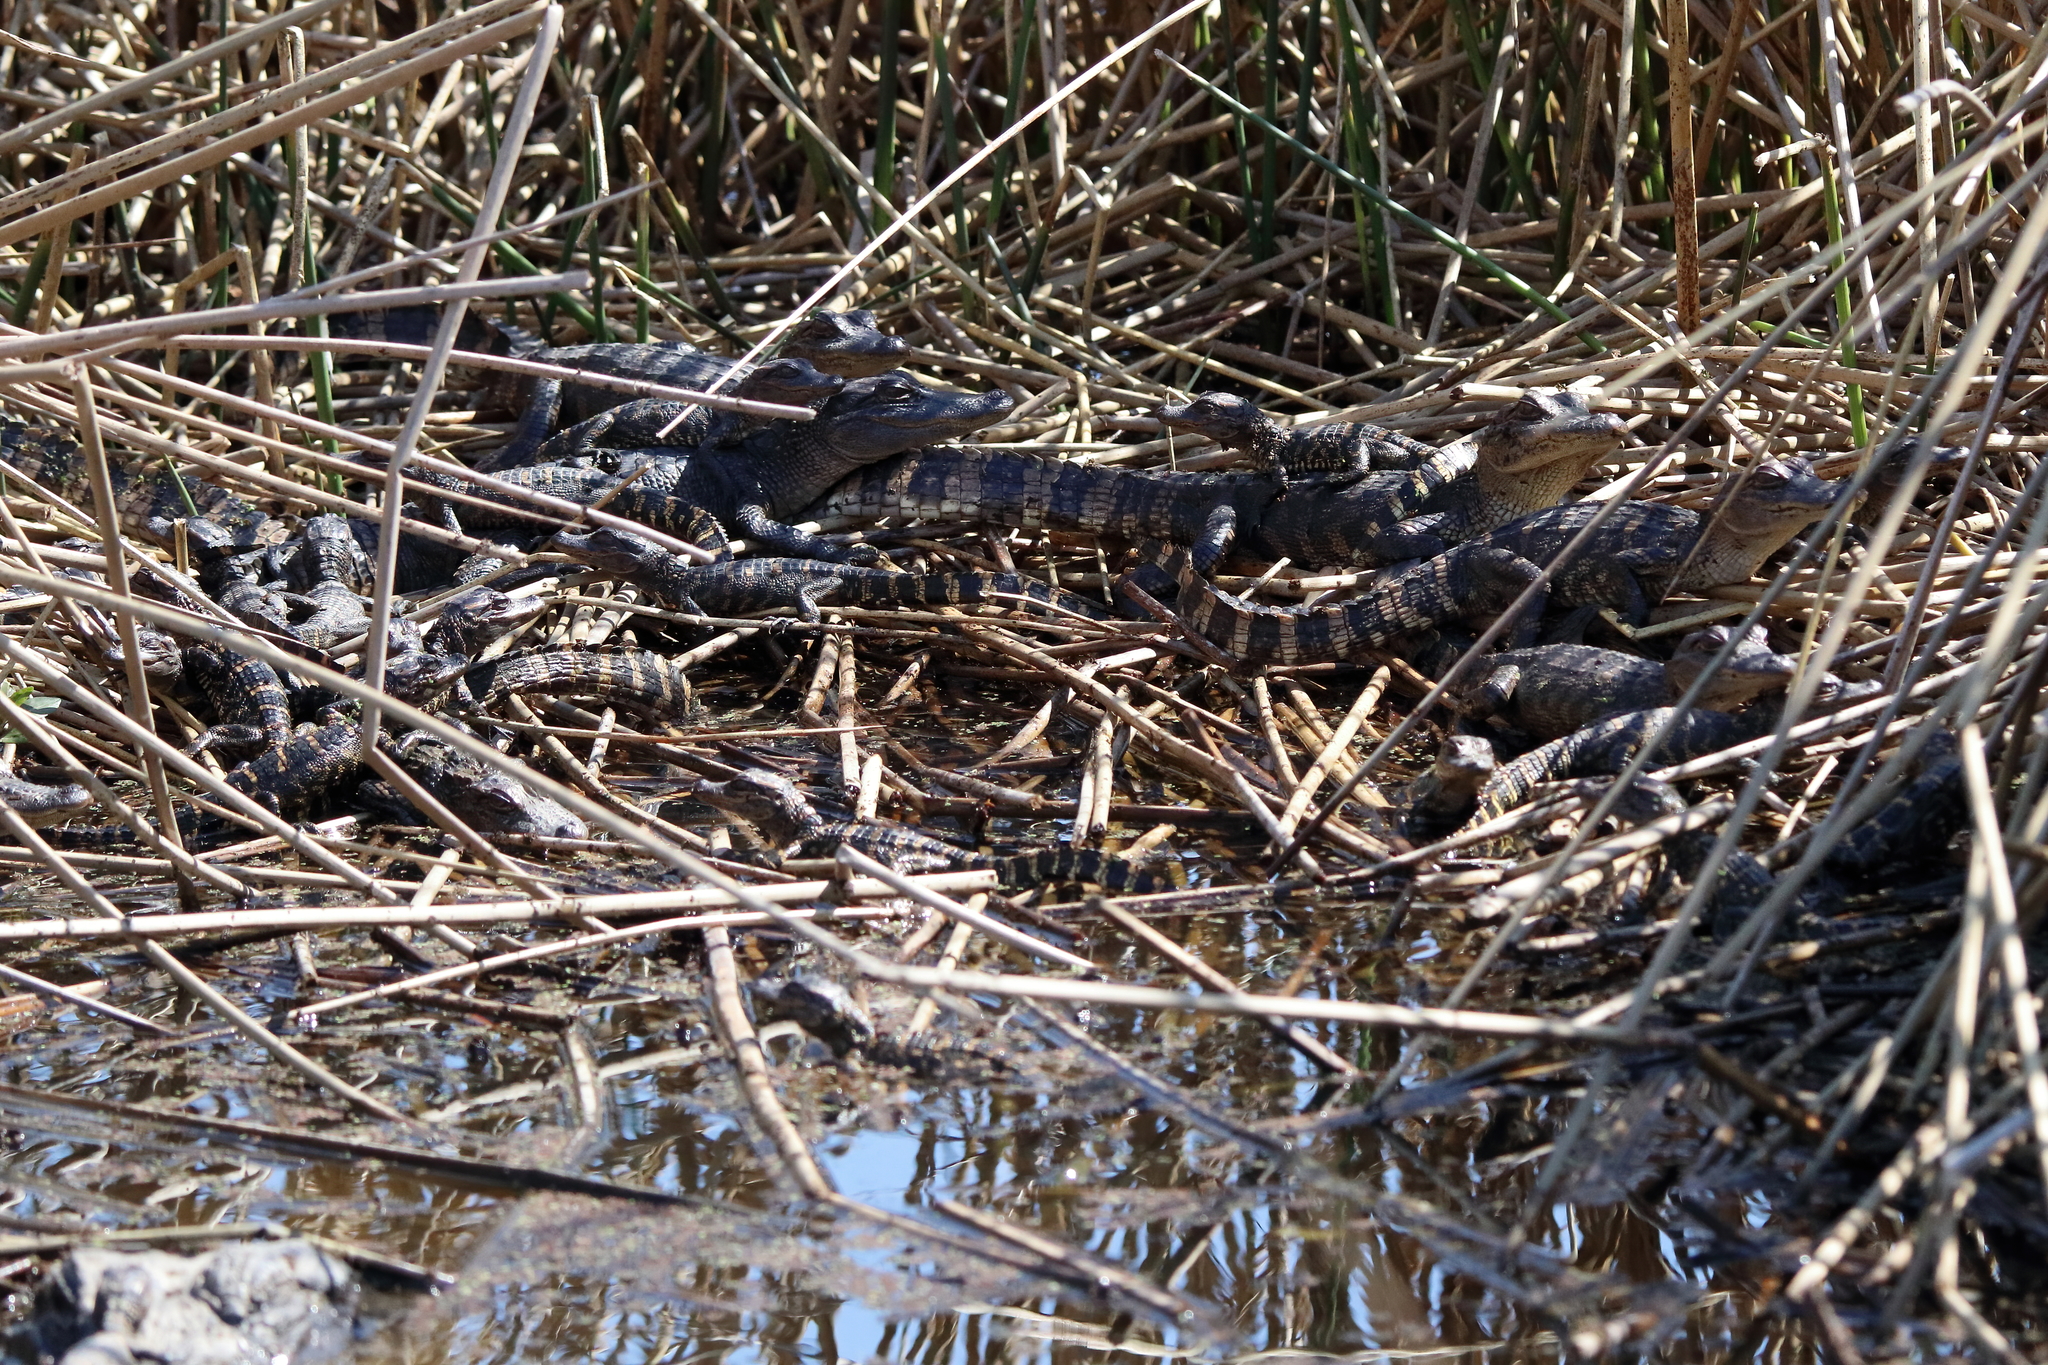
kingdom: Animalia
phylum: Chordata
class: Crocodylia
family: Alligatoridae
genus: Alligator
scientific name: Alligator mississippiensis
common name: American alligator
